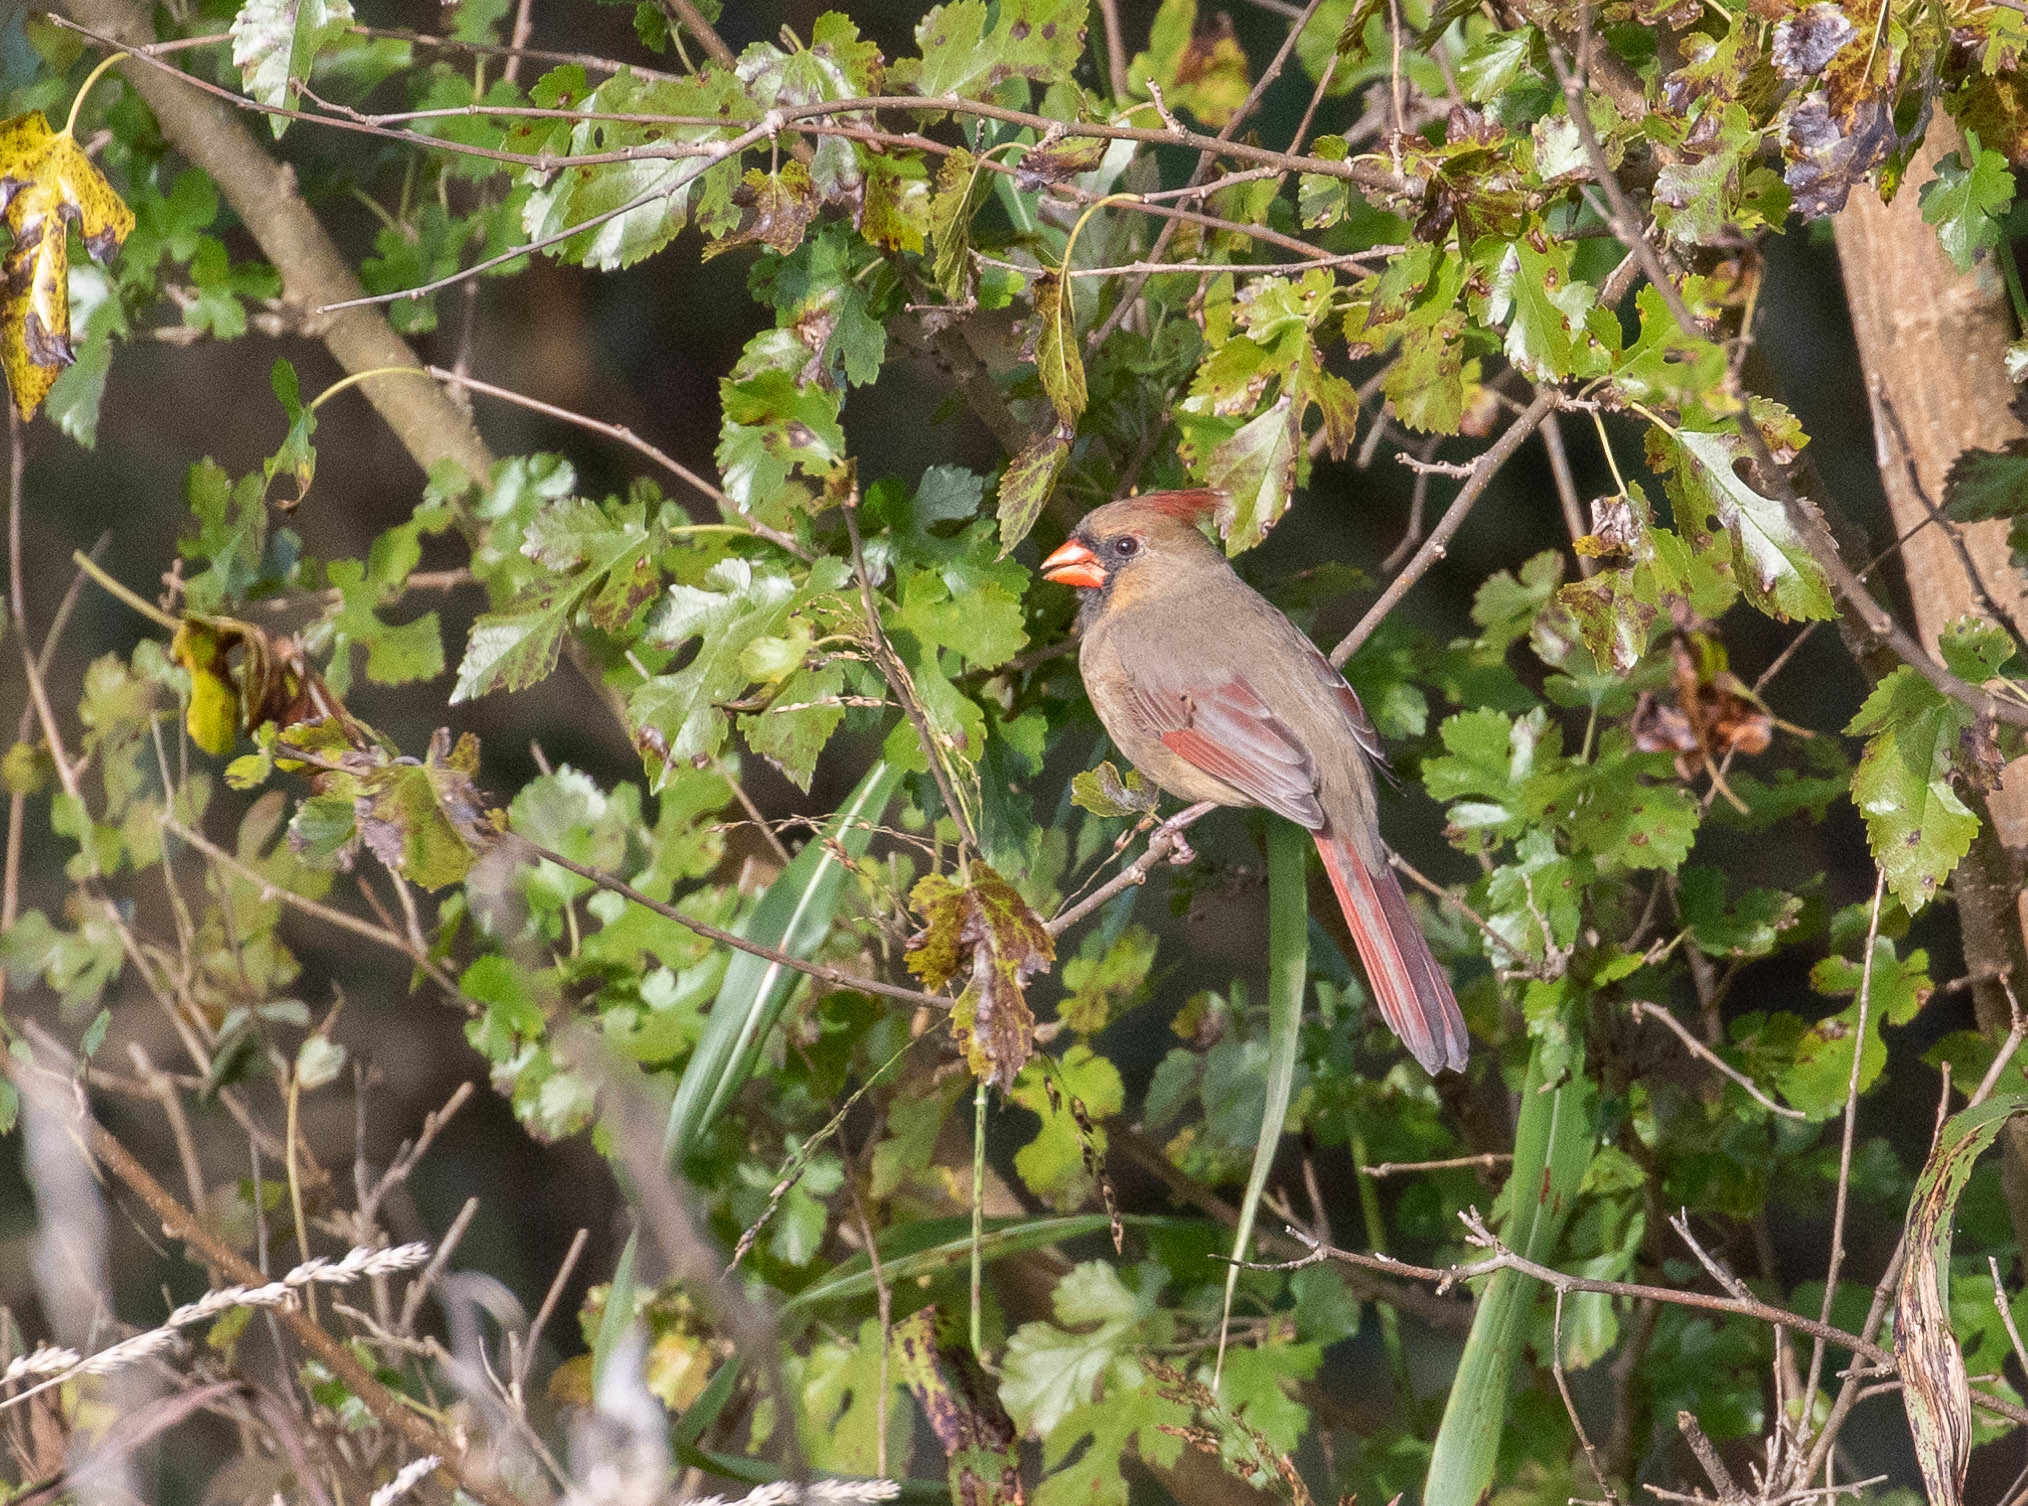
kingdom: Animalia
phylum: Chordata
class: Aves
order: Passeriformes
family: Cardinalidae
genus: Cardinalis
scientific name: Cardinalis cardinalis
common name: Northern cardinal
